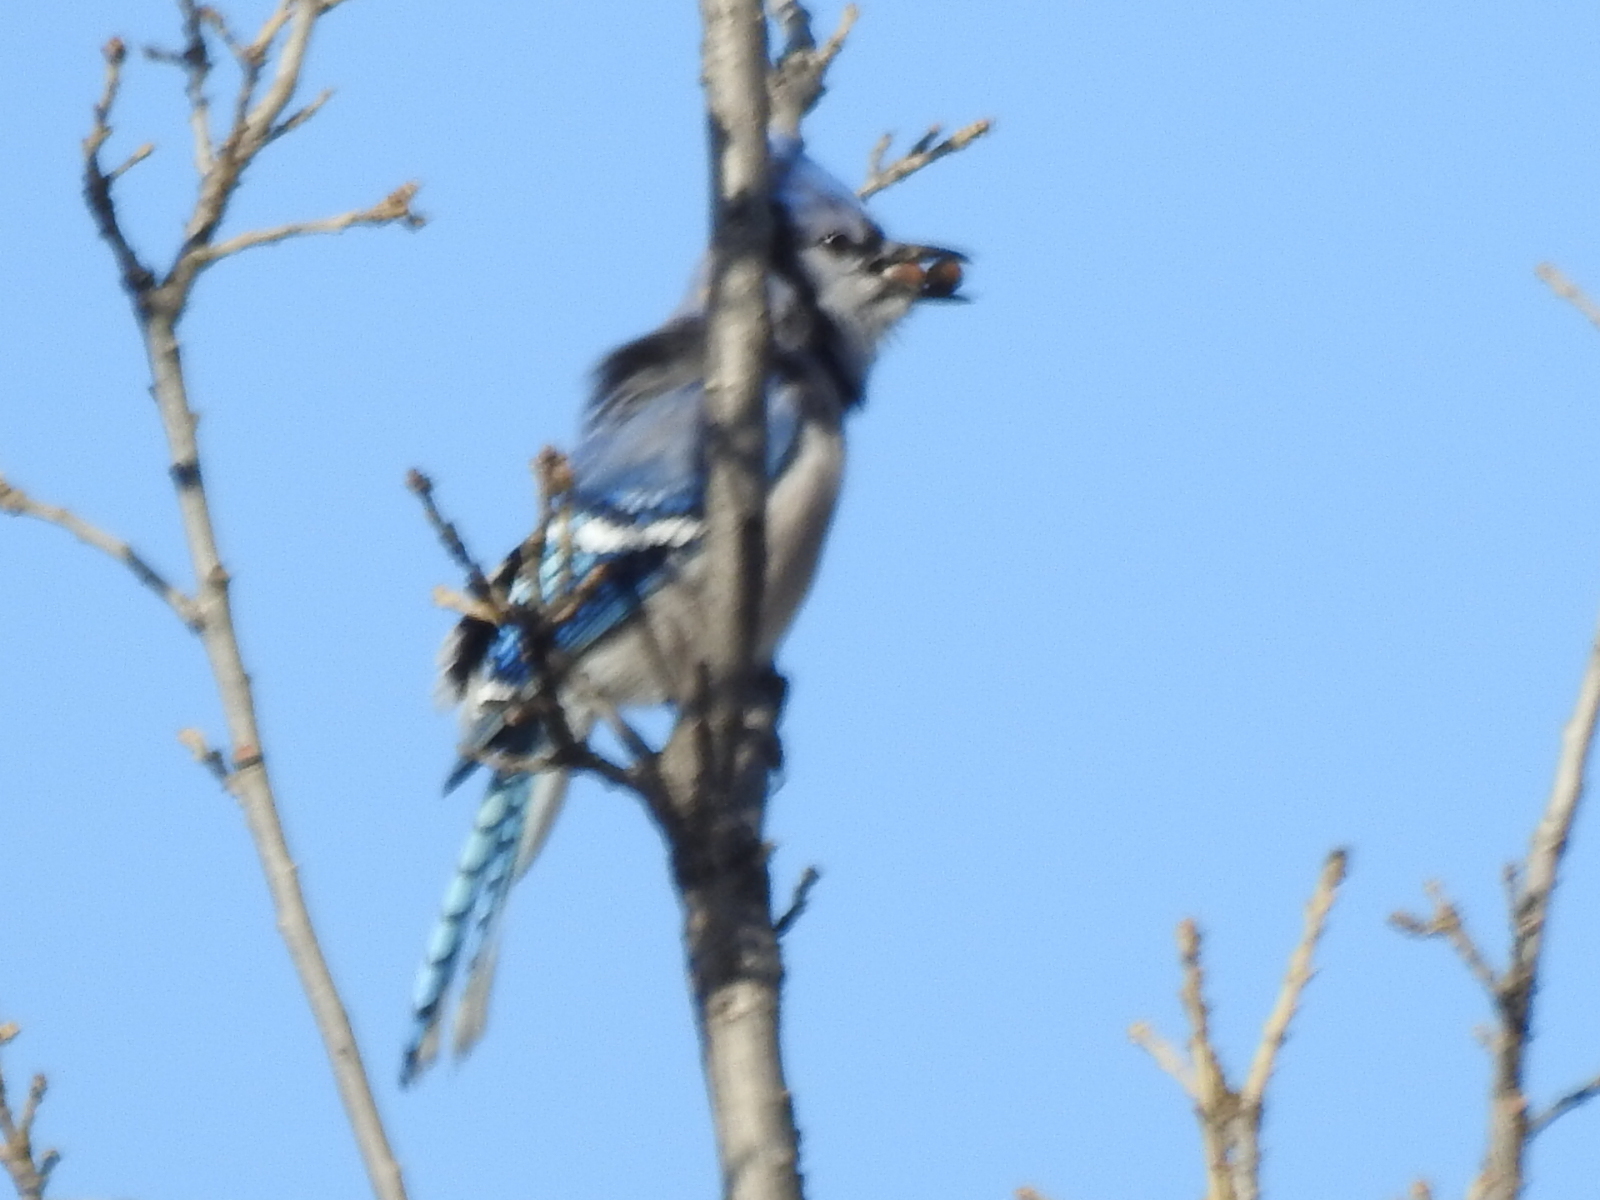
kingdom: Animalia
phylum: Chordata
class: Aves
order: Passeriformes
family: Corvidae
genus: Cyanocitta
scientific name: Cyanocitta cristata
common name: Blue jay
